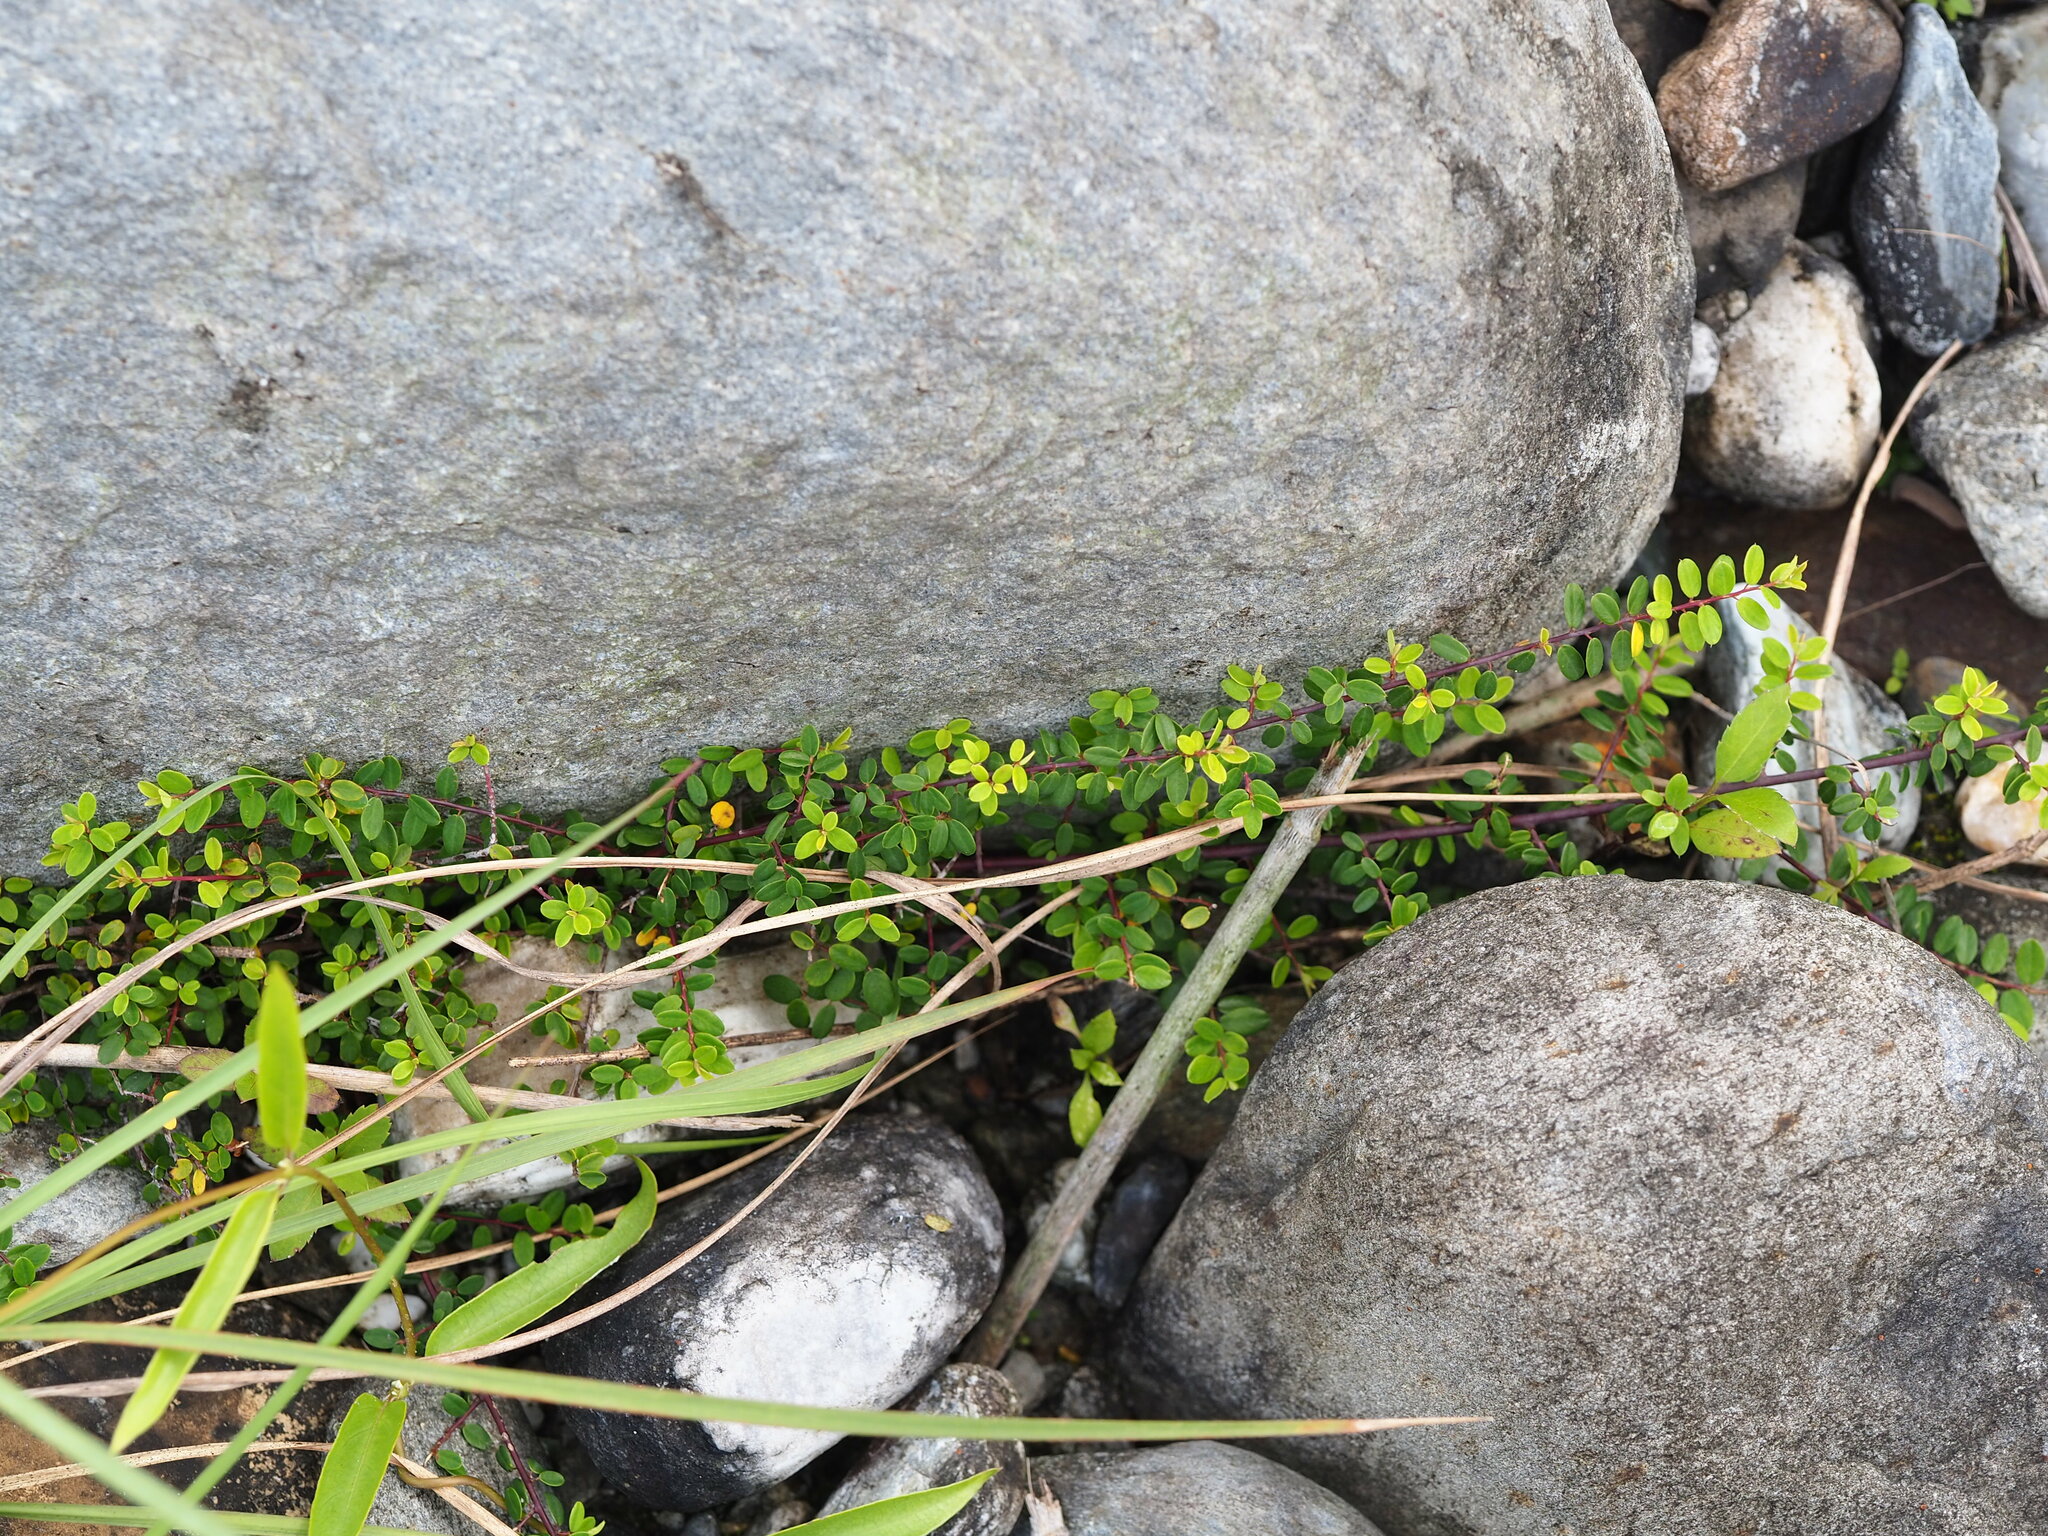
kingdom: Plantae
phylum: Tracheophyta
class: Magnoliopsida
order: Rosales
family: Rhamnaceae
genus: Berchemia
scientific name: Berchemia lineata
